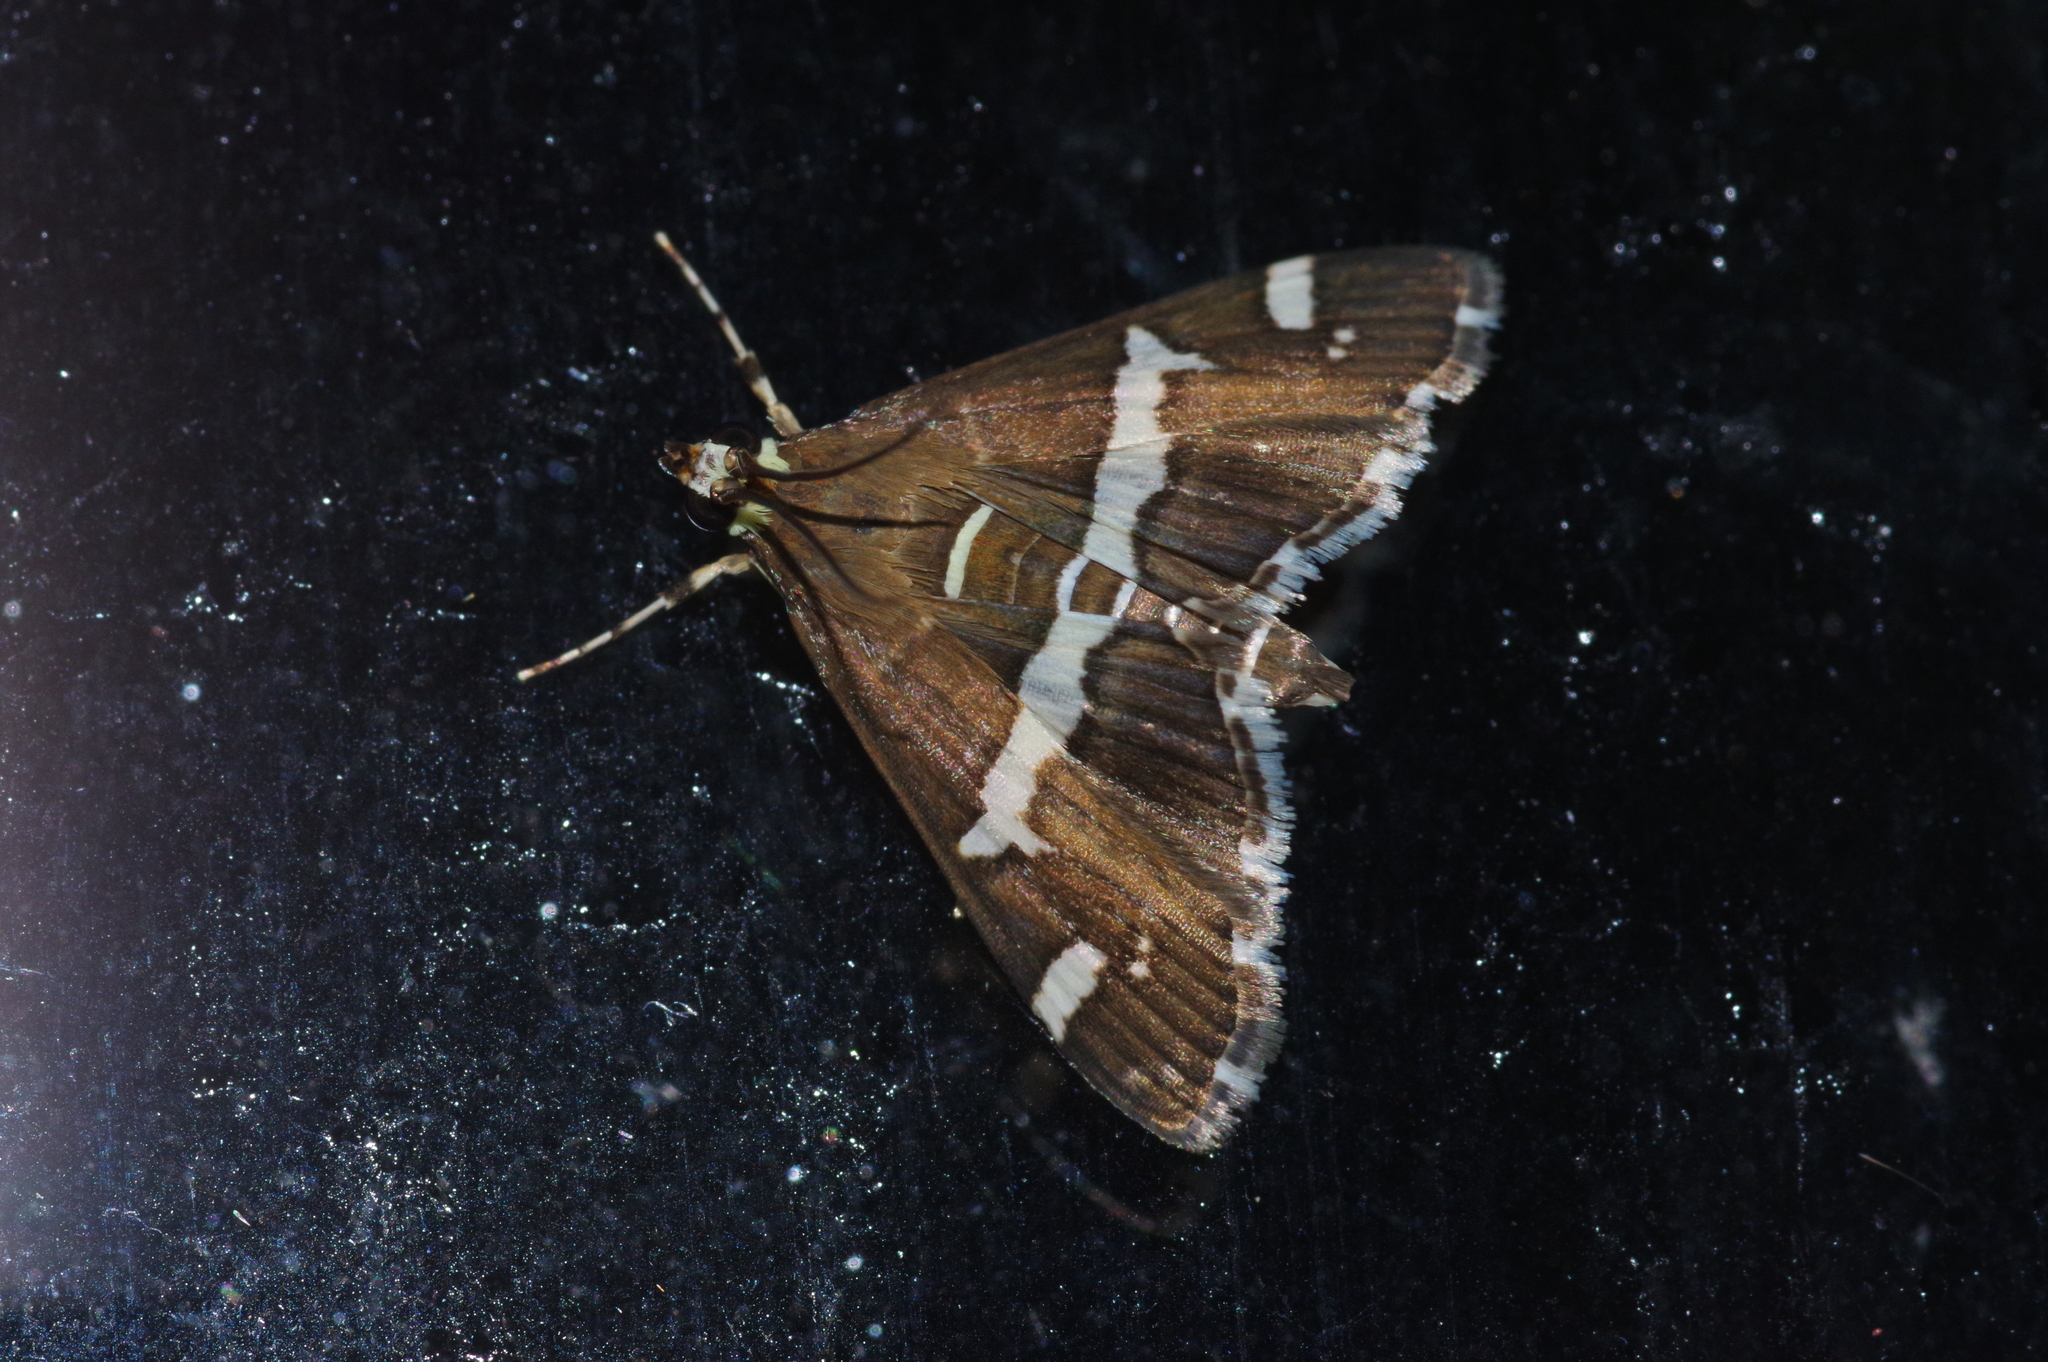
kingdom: Animalia
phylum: Arthropoda
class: Insecta
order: Lepidoptera
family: Crambidae
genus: Spoladea
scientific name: Spoladea recurvalis
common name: Beet webworm moth
